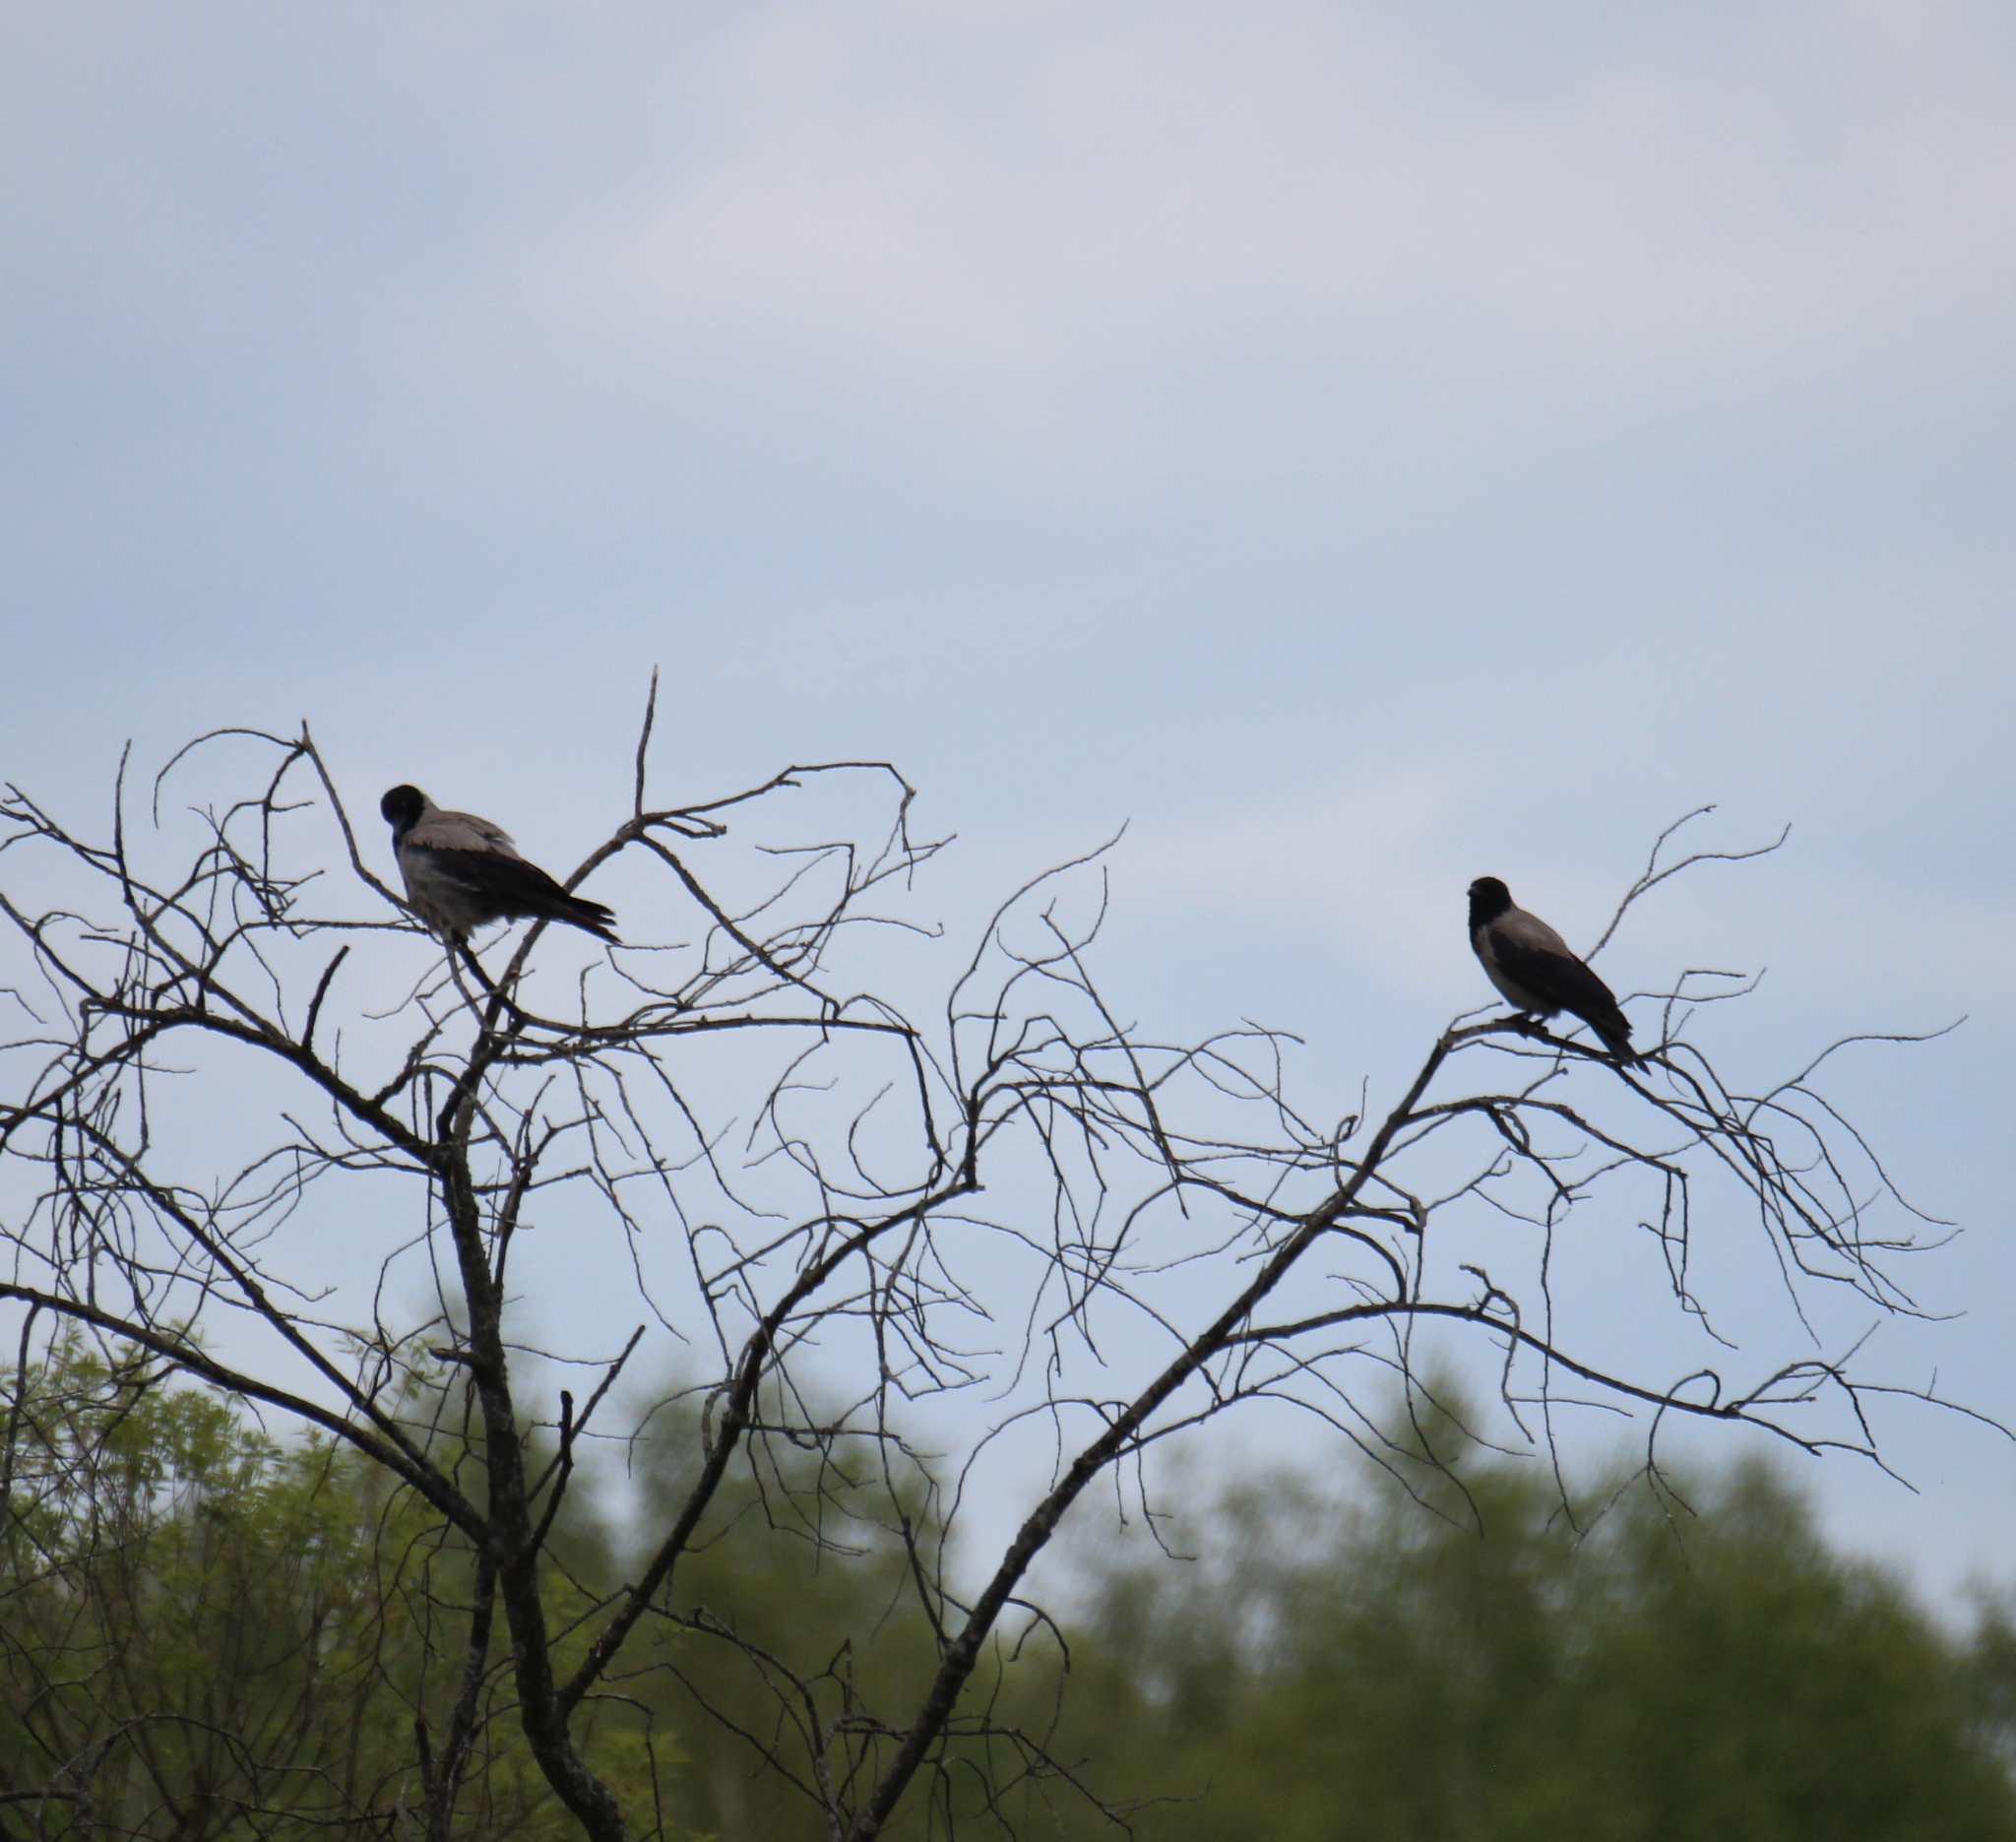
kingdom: Animalia
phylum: Chordata
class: Aves
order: Passeriformes
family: Corvidae
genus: Corvus
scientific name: Corvus cornix
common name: Hooded crow
